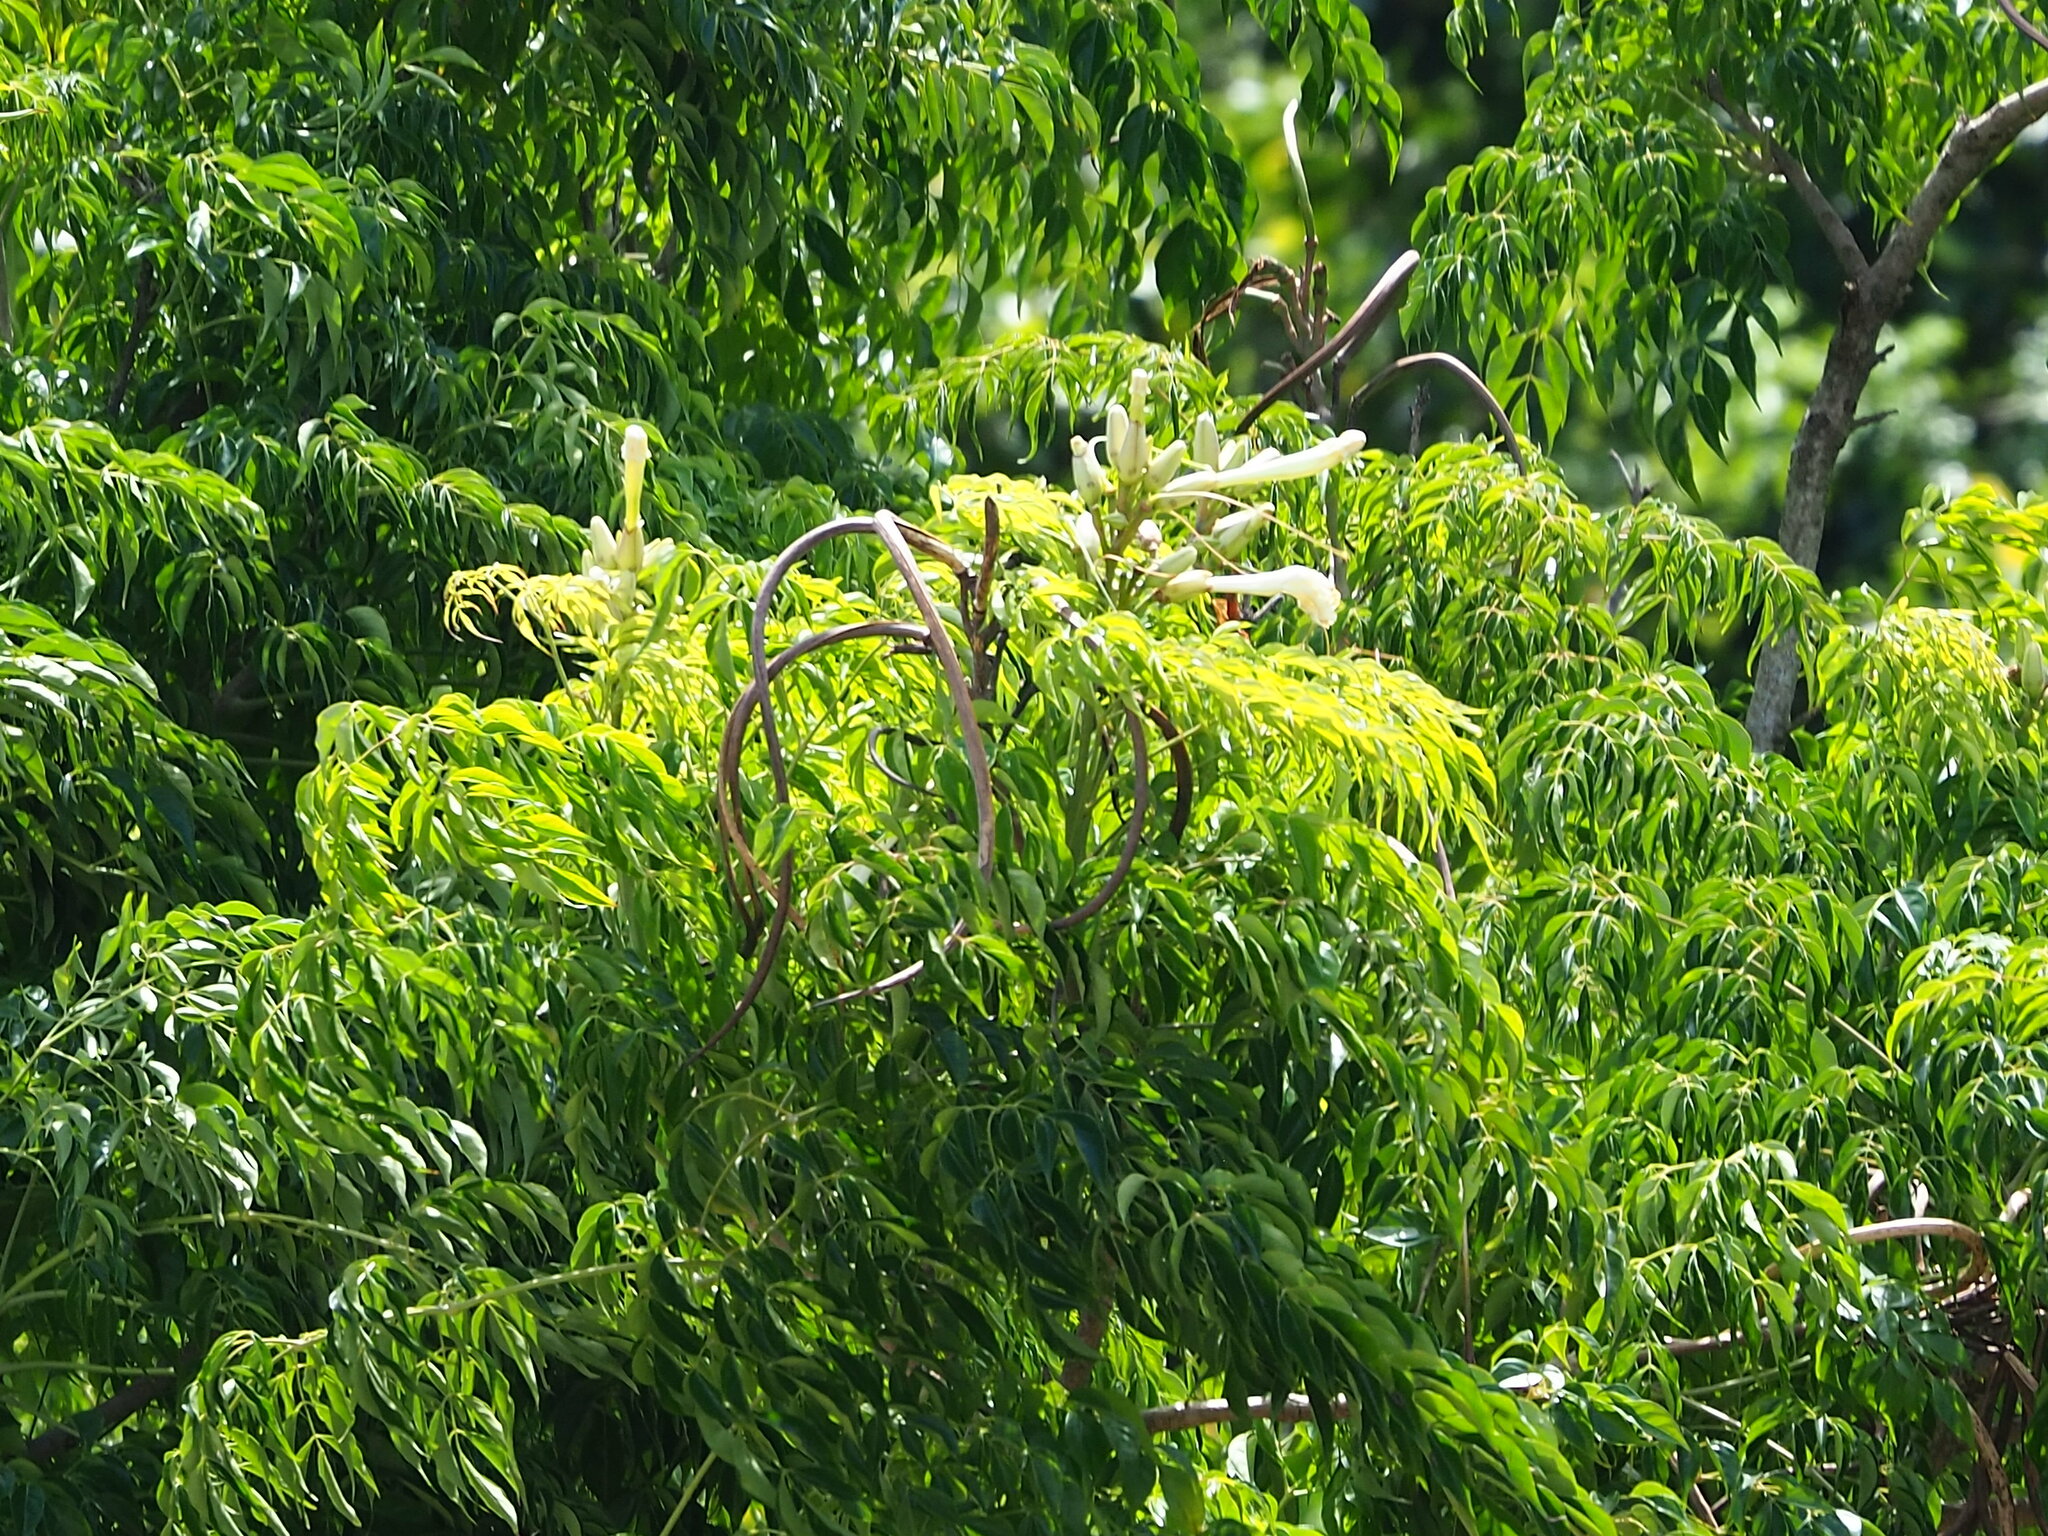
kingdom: Plantae
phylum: Tracheophyta
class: Magnoliopsida
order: Lamiales
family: Bignoniaceae
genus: Radermachera
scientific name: Radermachera sinica
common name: China doll plant
